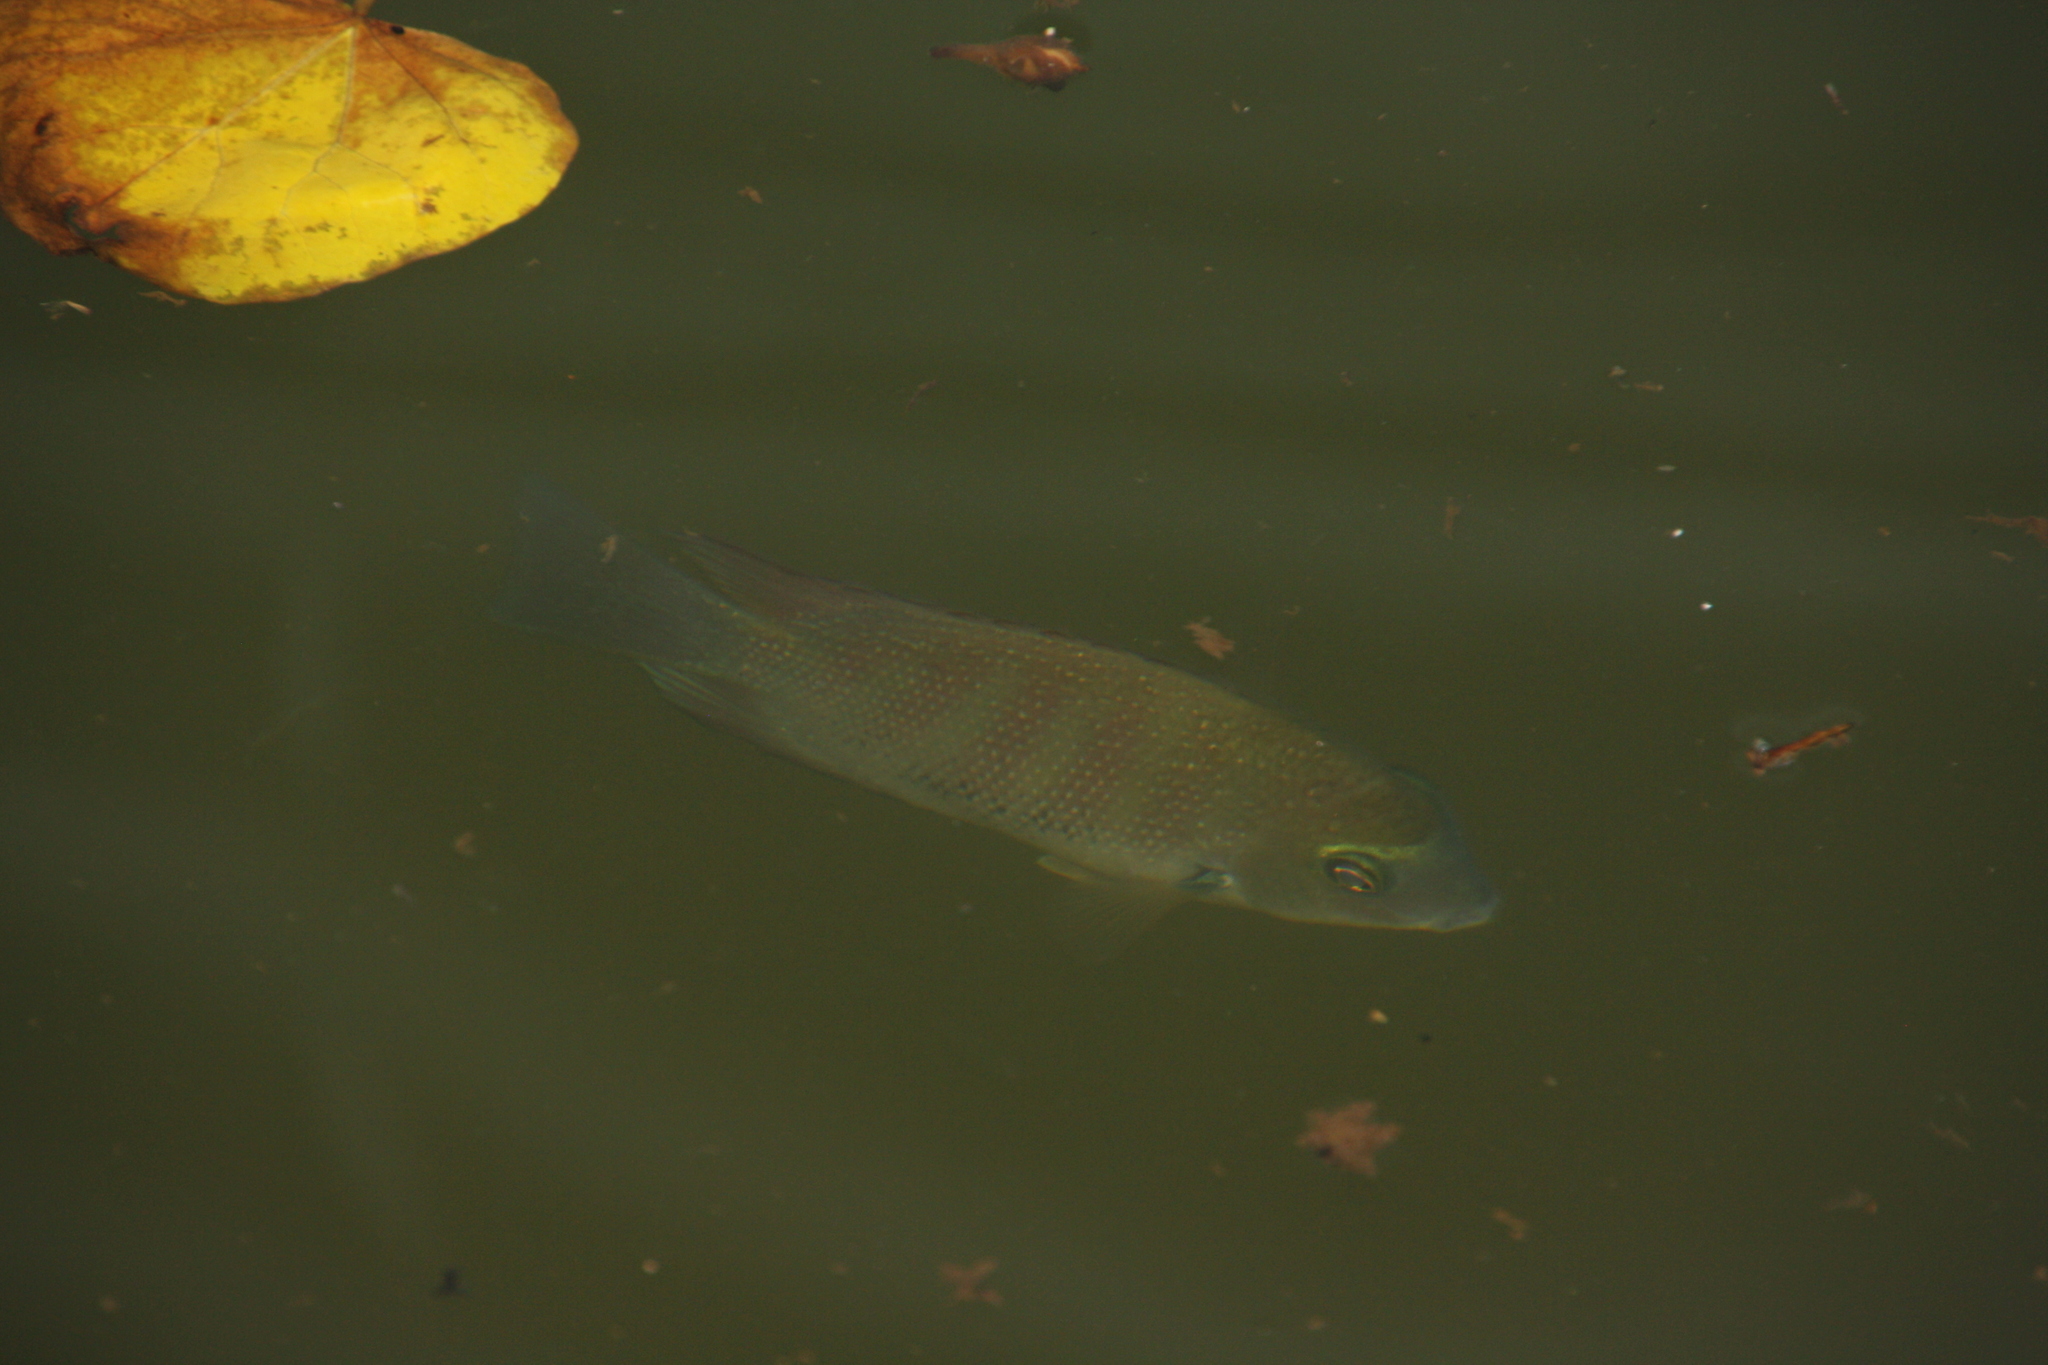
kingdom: Animalia
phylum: Chordata
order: Perciformes
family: Cichlidae
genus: Etroplus
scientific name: Etroplus suratensis
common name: Green chromide
